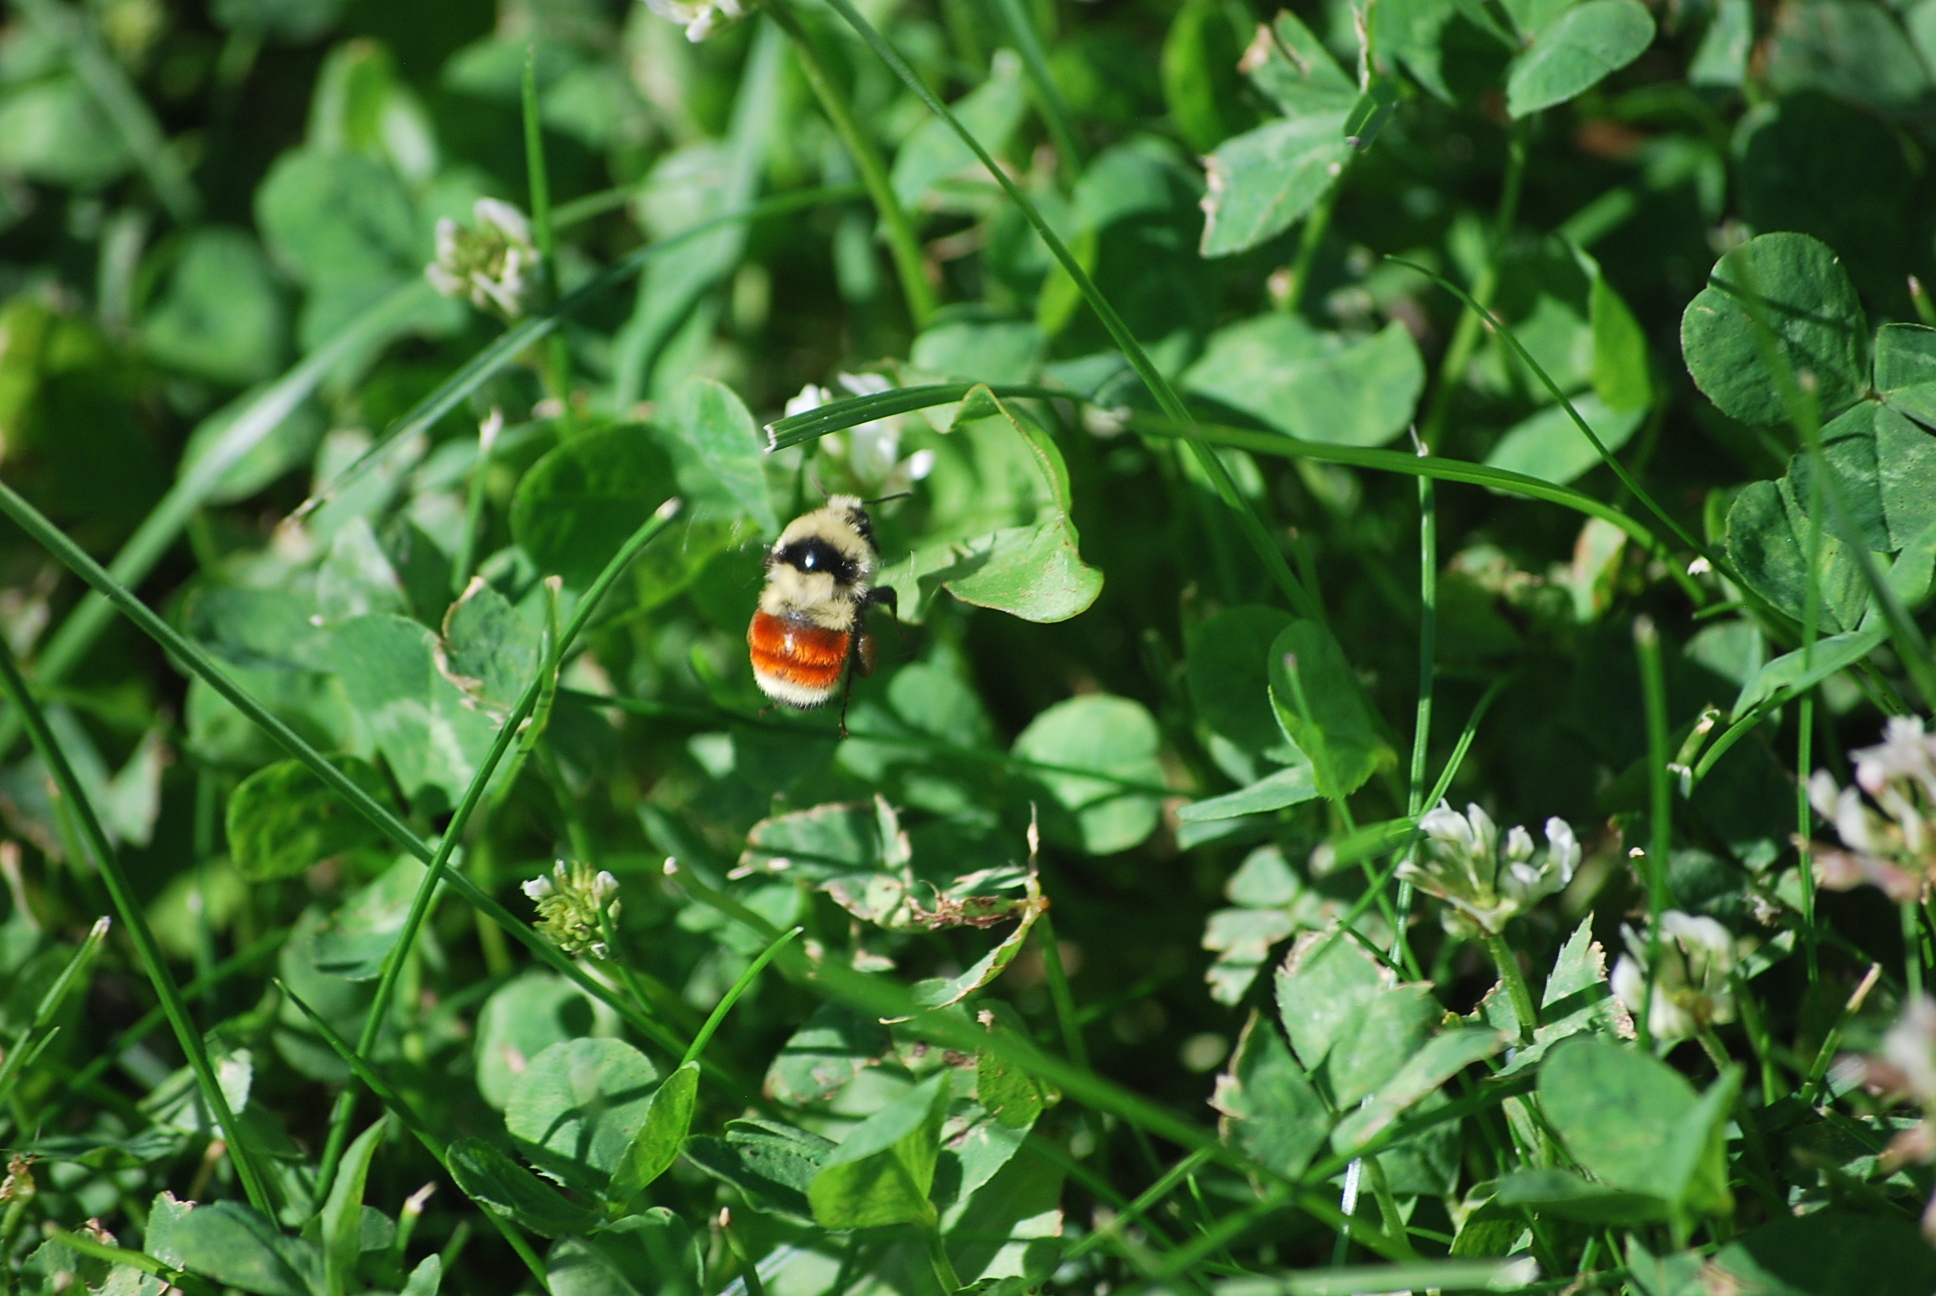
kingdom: Animalia
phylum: Arthropoda
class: Insecta
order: Hymenoptera
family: Apidae
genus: Bombus
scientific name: Bombus huntii
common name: Hunt bumble bee
